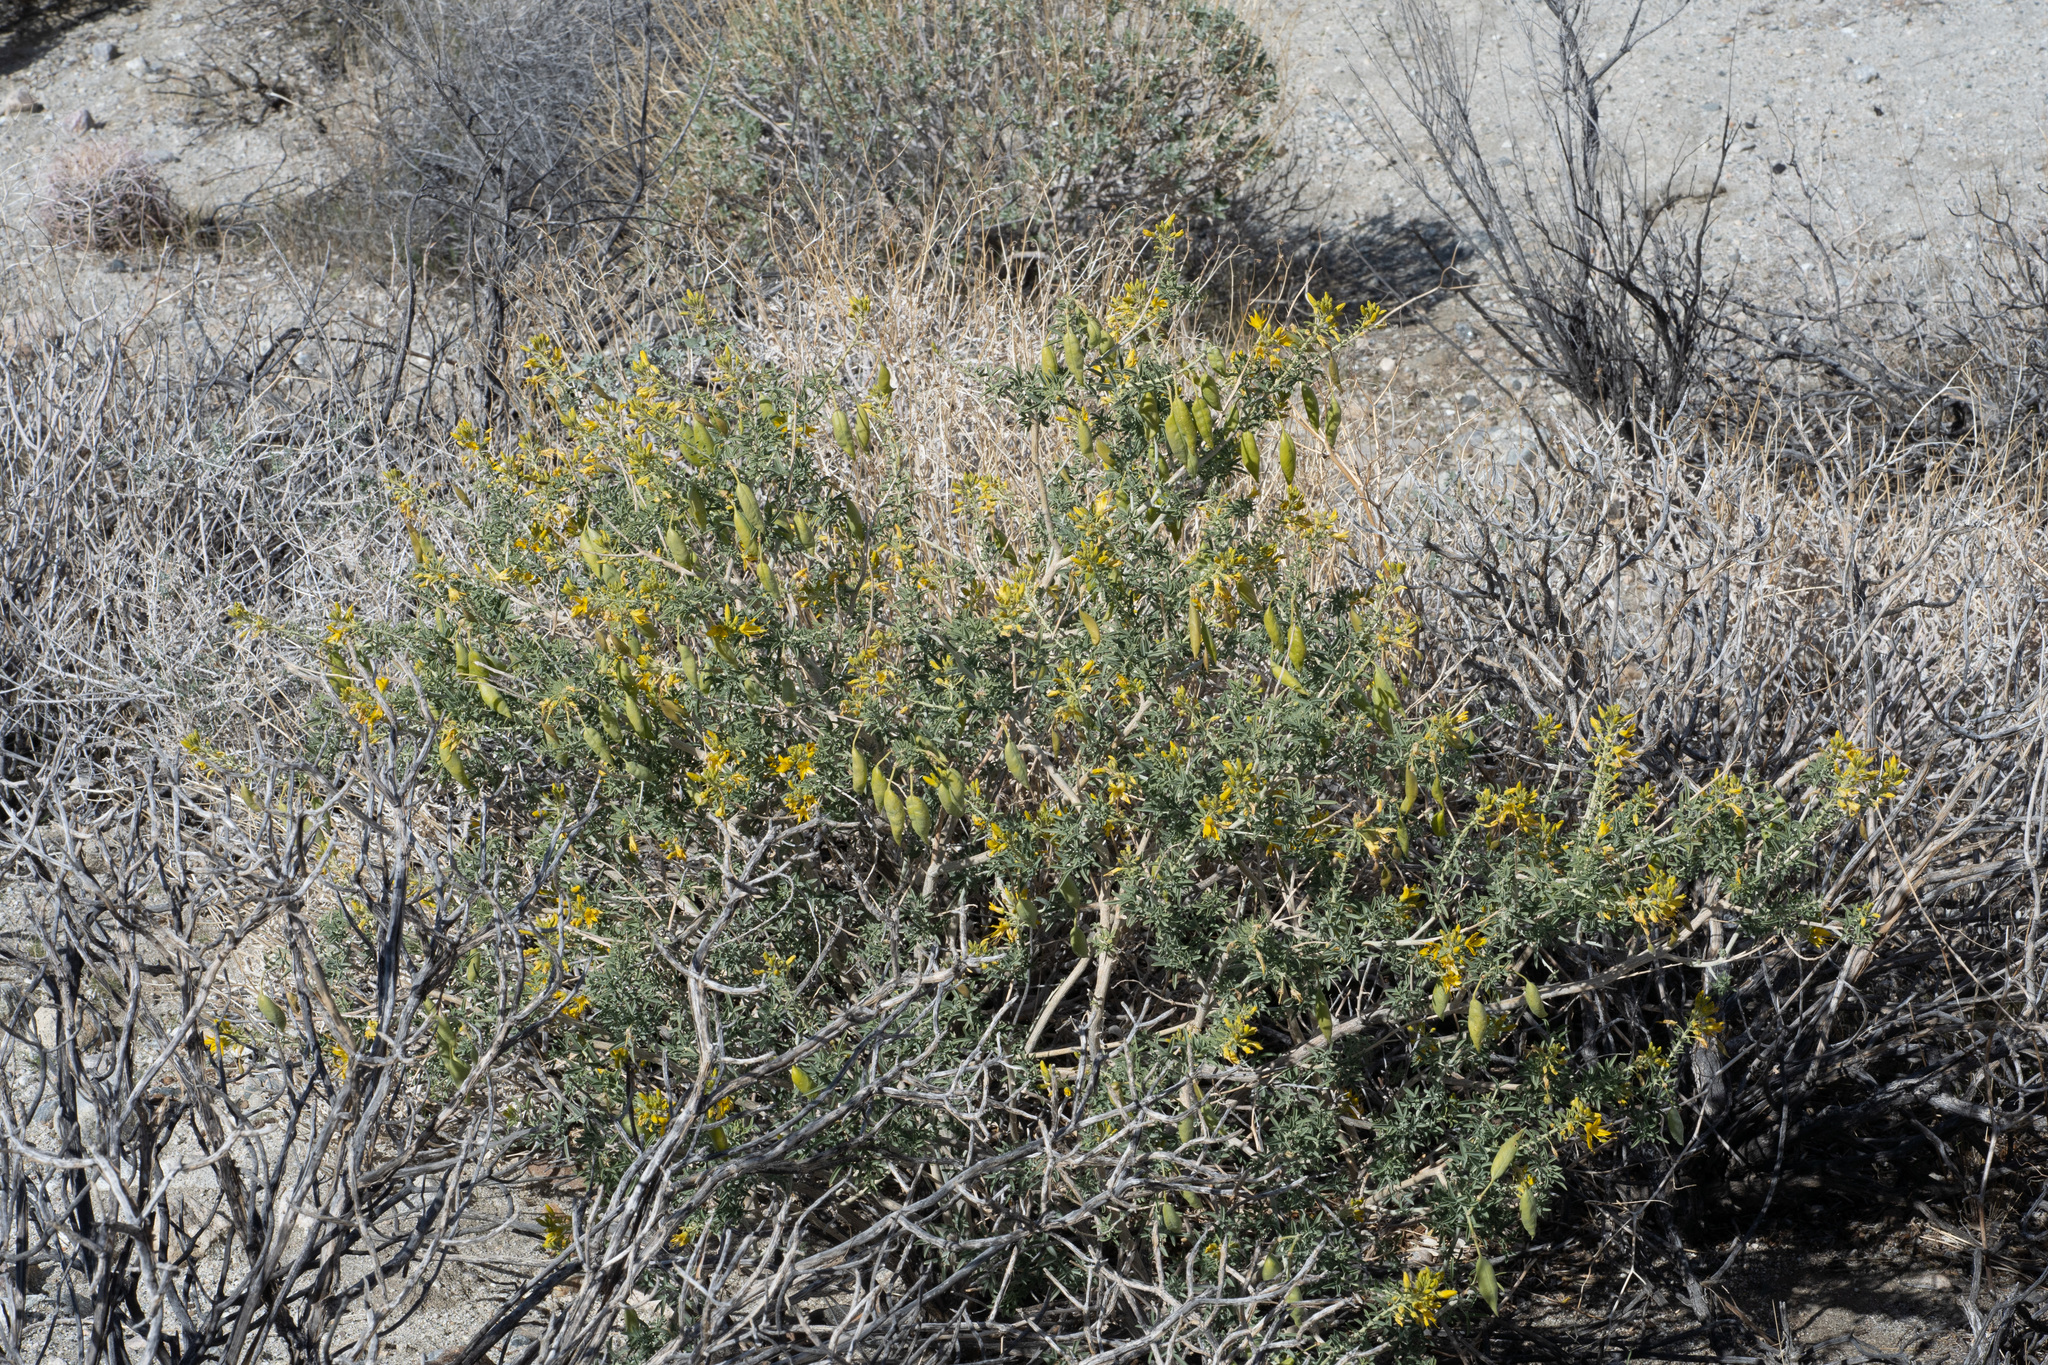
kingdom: Plantae
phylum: Tracheophyta
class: Magnoliopsida
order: Brassicales
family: Cleomaceae
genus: Cleomella
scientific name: Cleomella arborea
